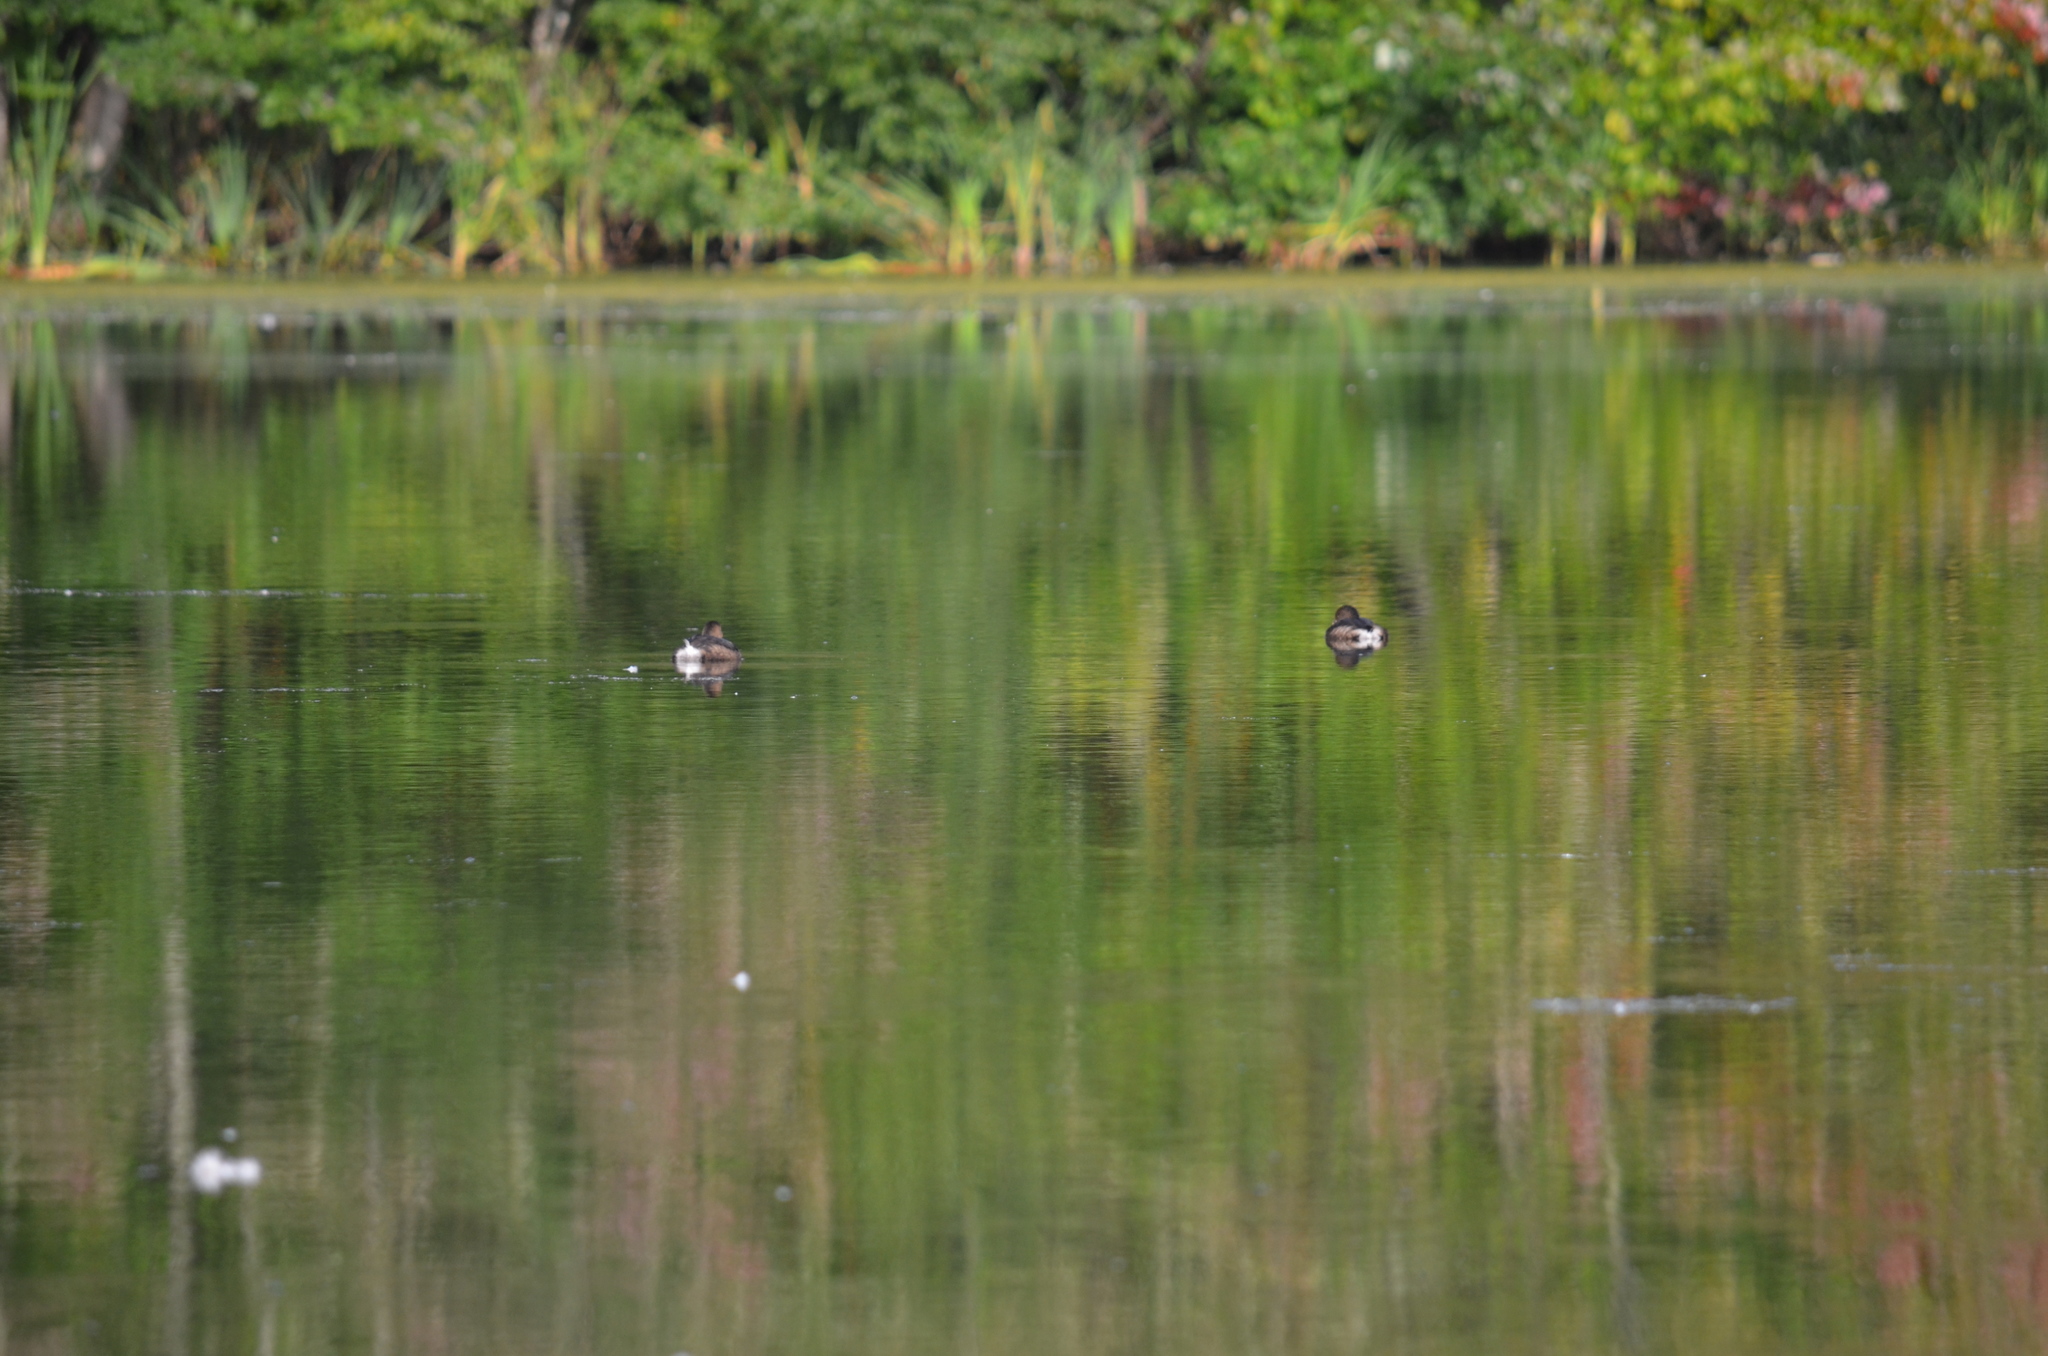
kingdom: Animalia
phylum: Chordata
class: Aves
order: Podicipediformes
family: Podicipedidae
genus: Podilymbus
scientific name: Podilymbus podiceps
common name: Pied-billed grebe
